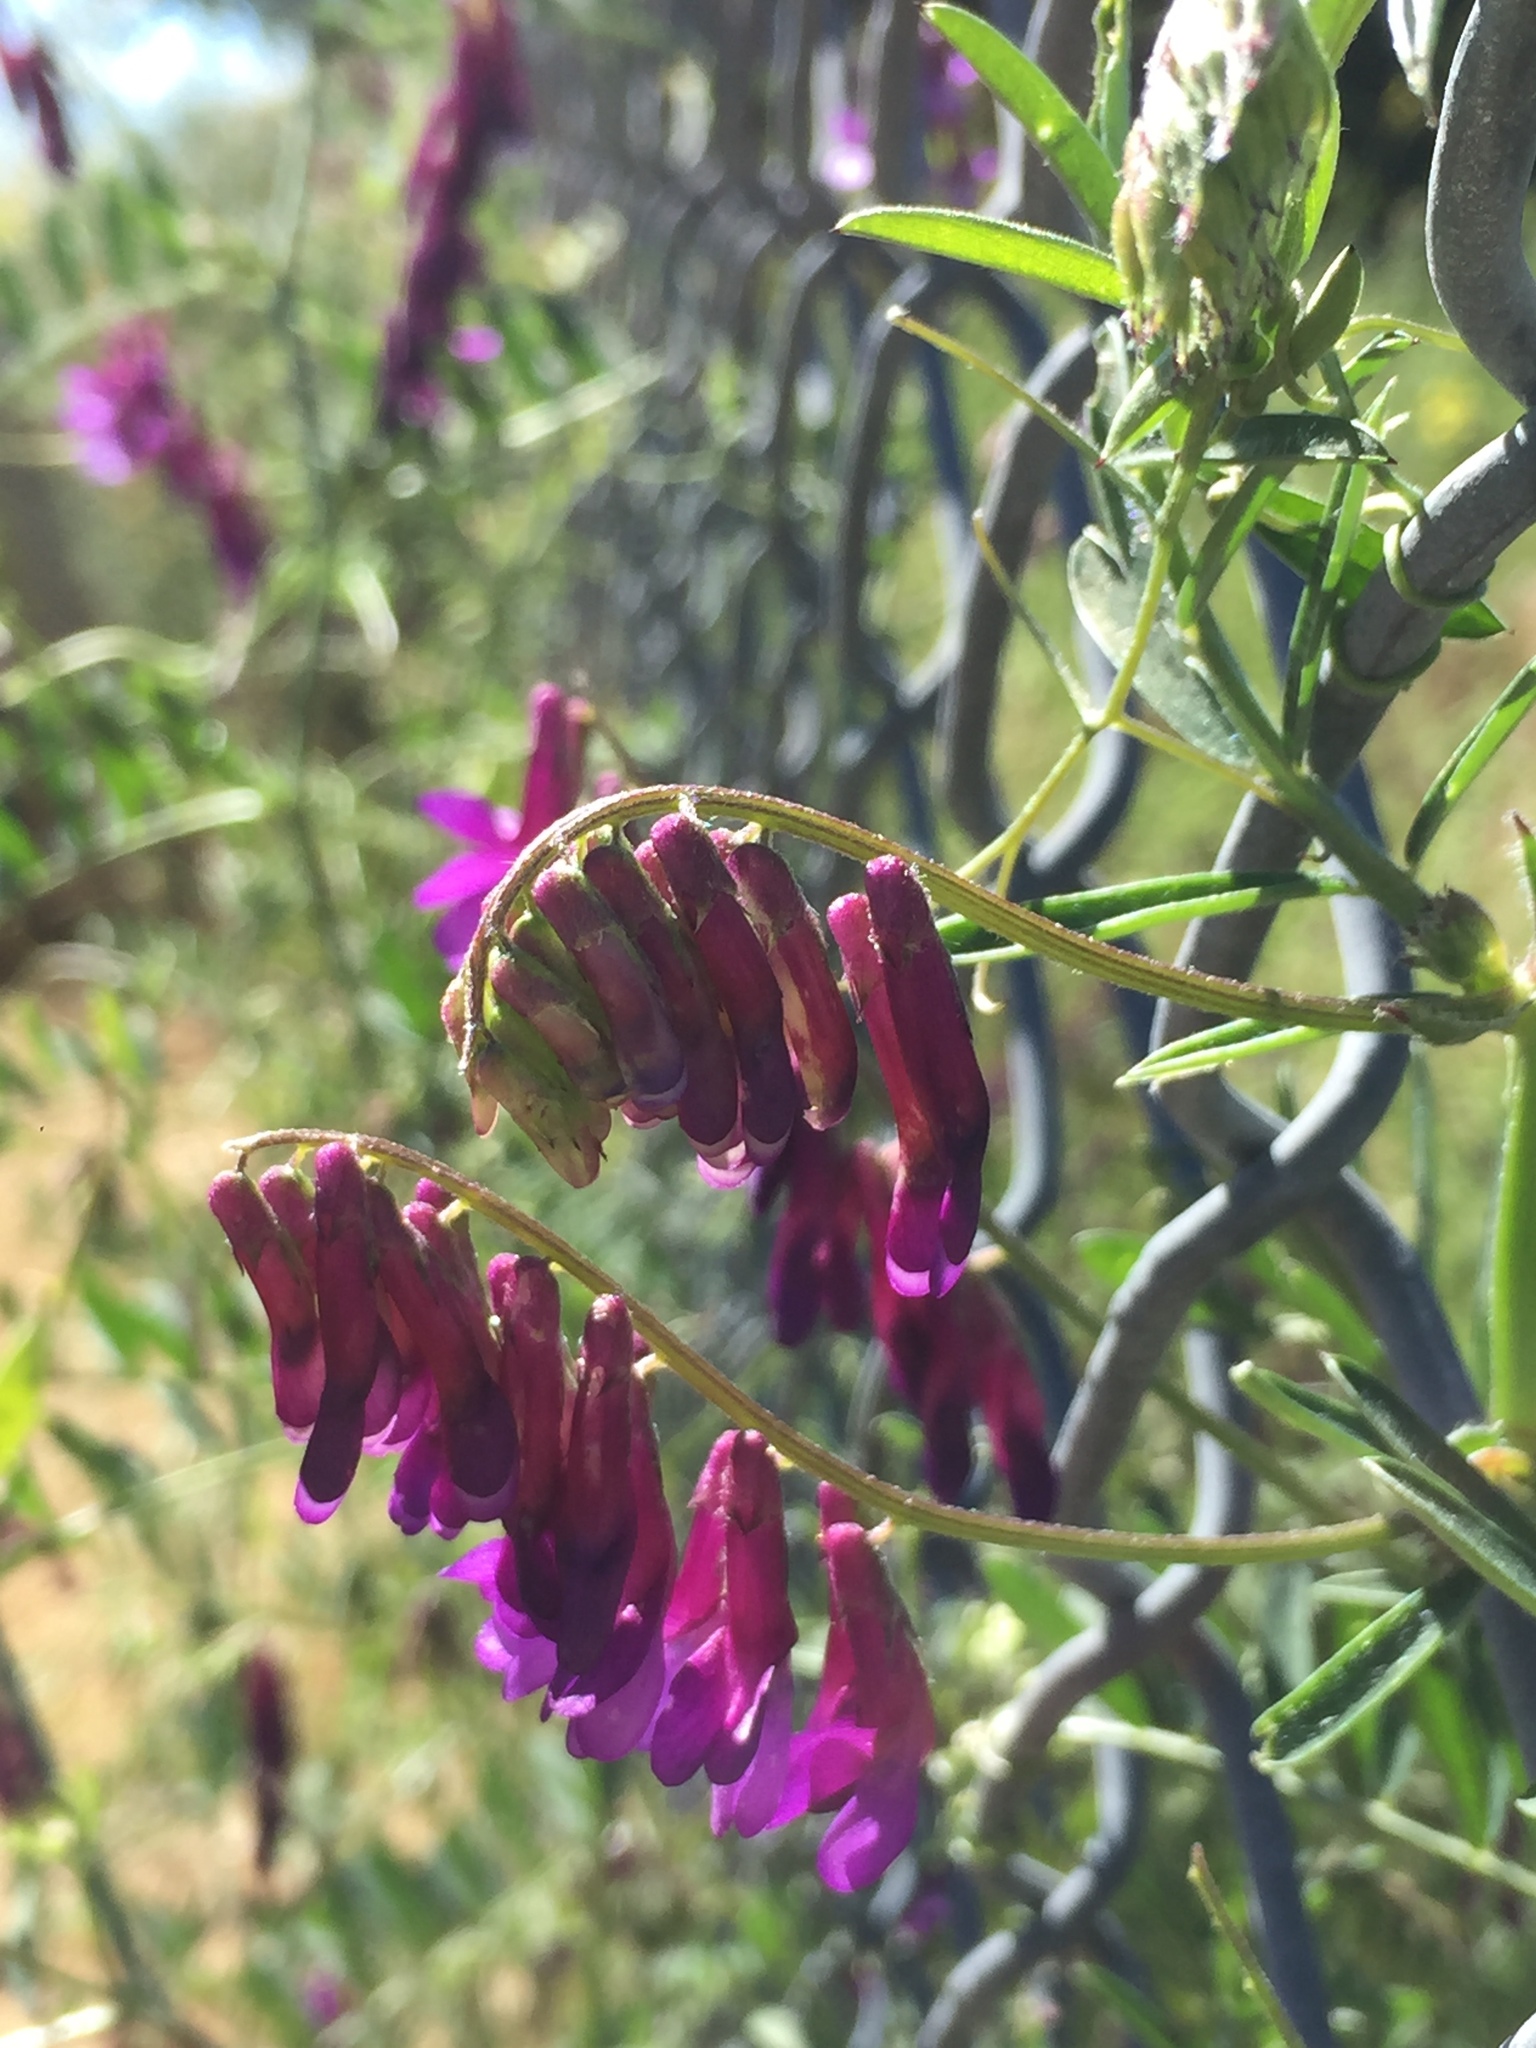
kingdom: Plantae
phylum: Tracheophyta
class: Magnoliopsida
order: Fabales
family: Fabaceae
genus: Vicia
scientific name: Vicia villosa
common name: Fodder vetch
